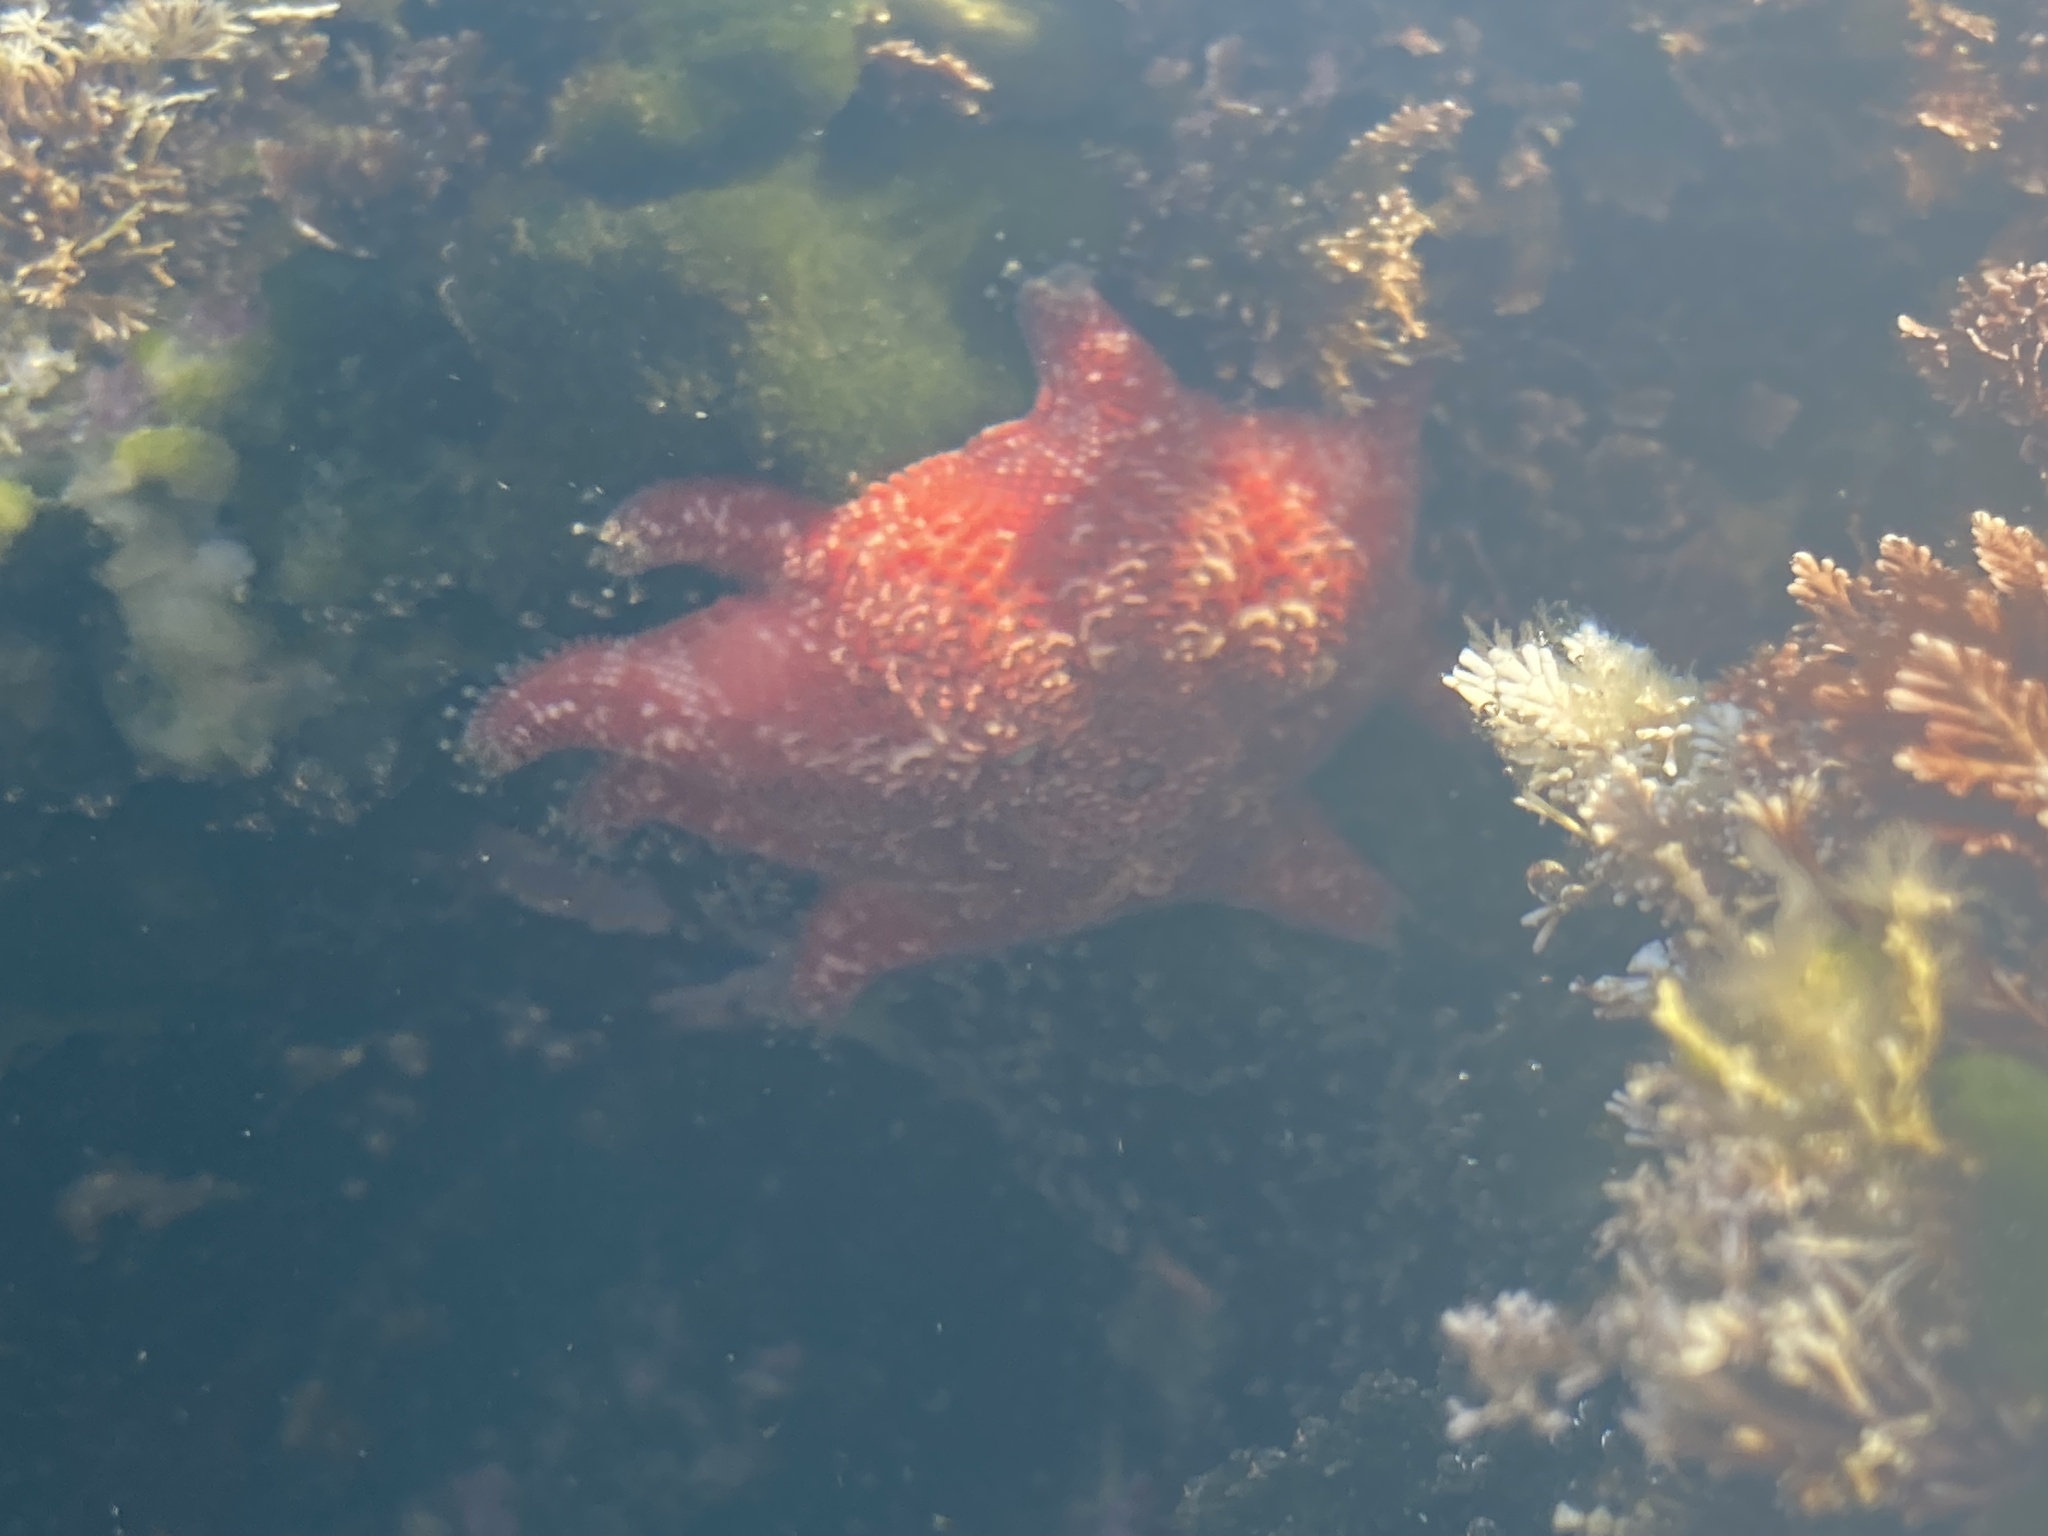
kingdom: Animalia
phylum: Echinodermata
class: Asteroidea
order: Valvatida
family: Asterinidae
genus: Meridiastra
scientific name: Meridiastra calcar
